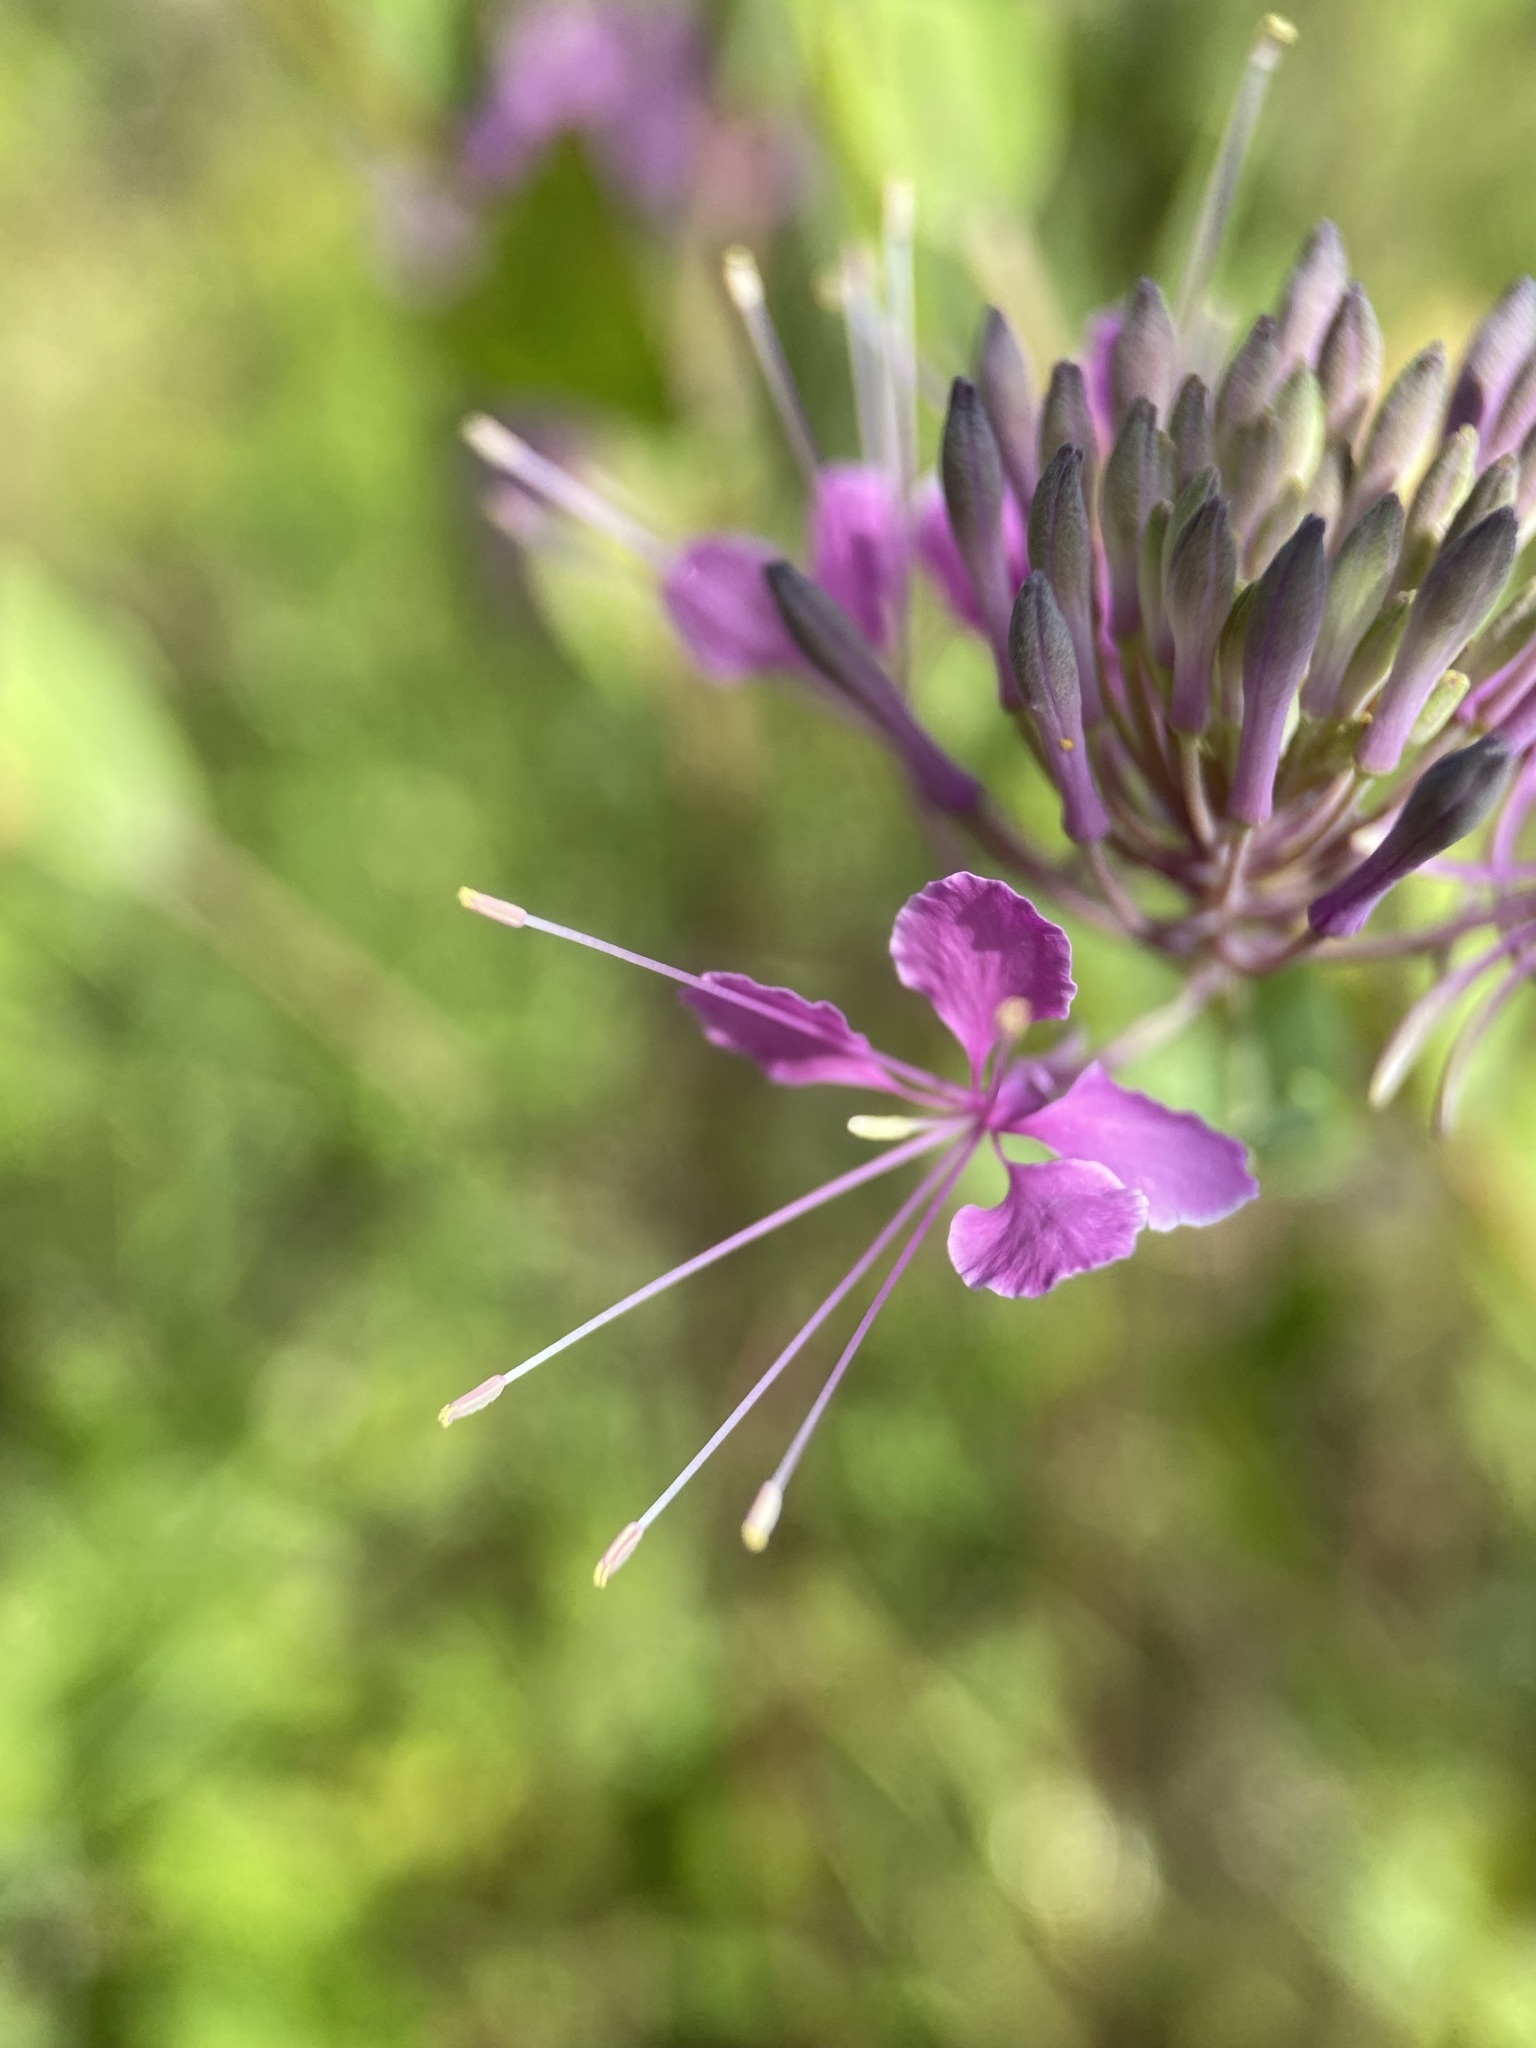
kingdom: Plantae
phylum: Tracheophyta
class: Magnoliopsida
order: Brassicales
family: Brassicaceae
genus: Warea
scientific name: Warea sessilifolia
